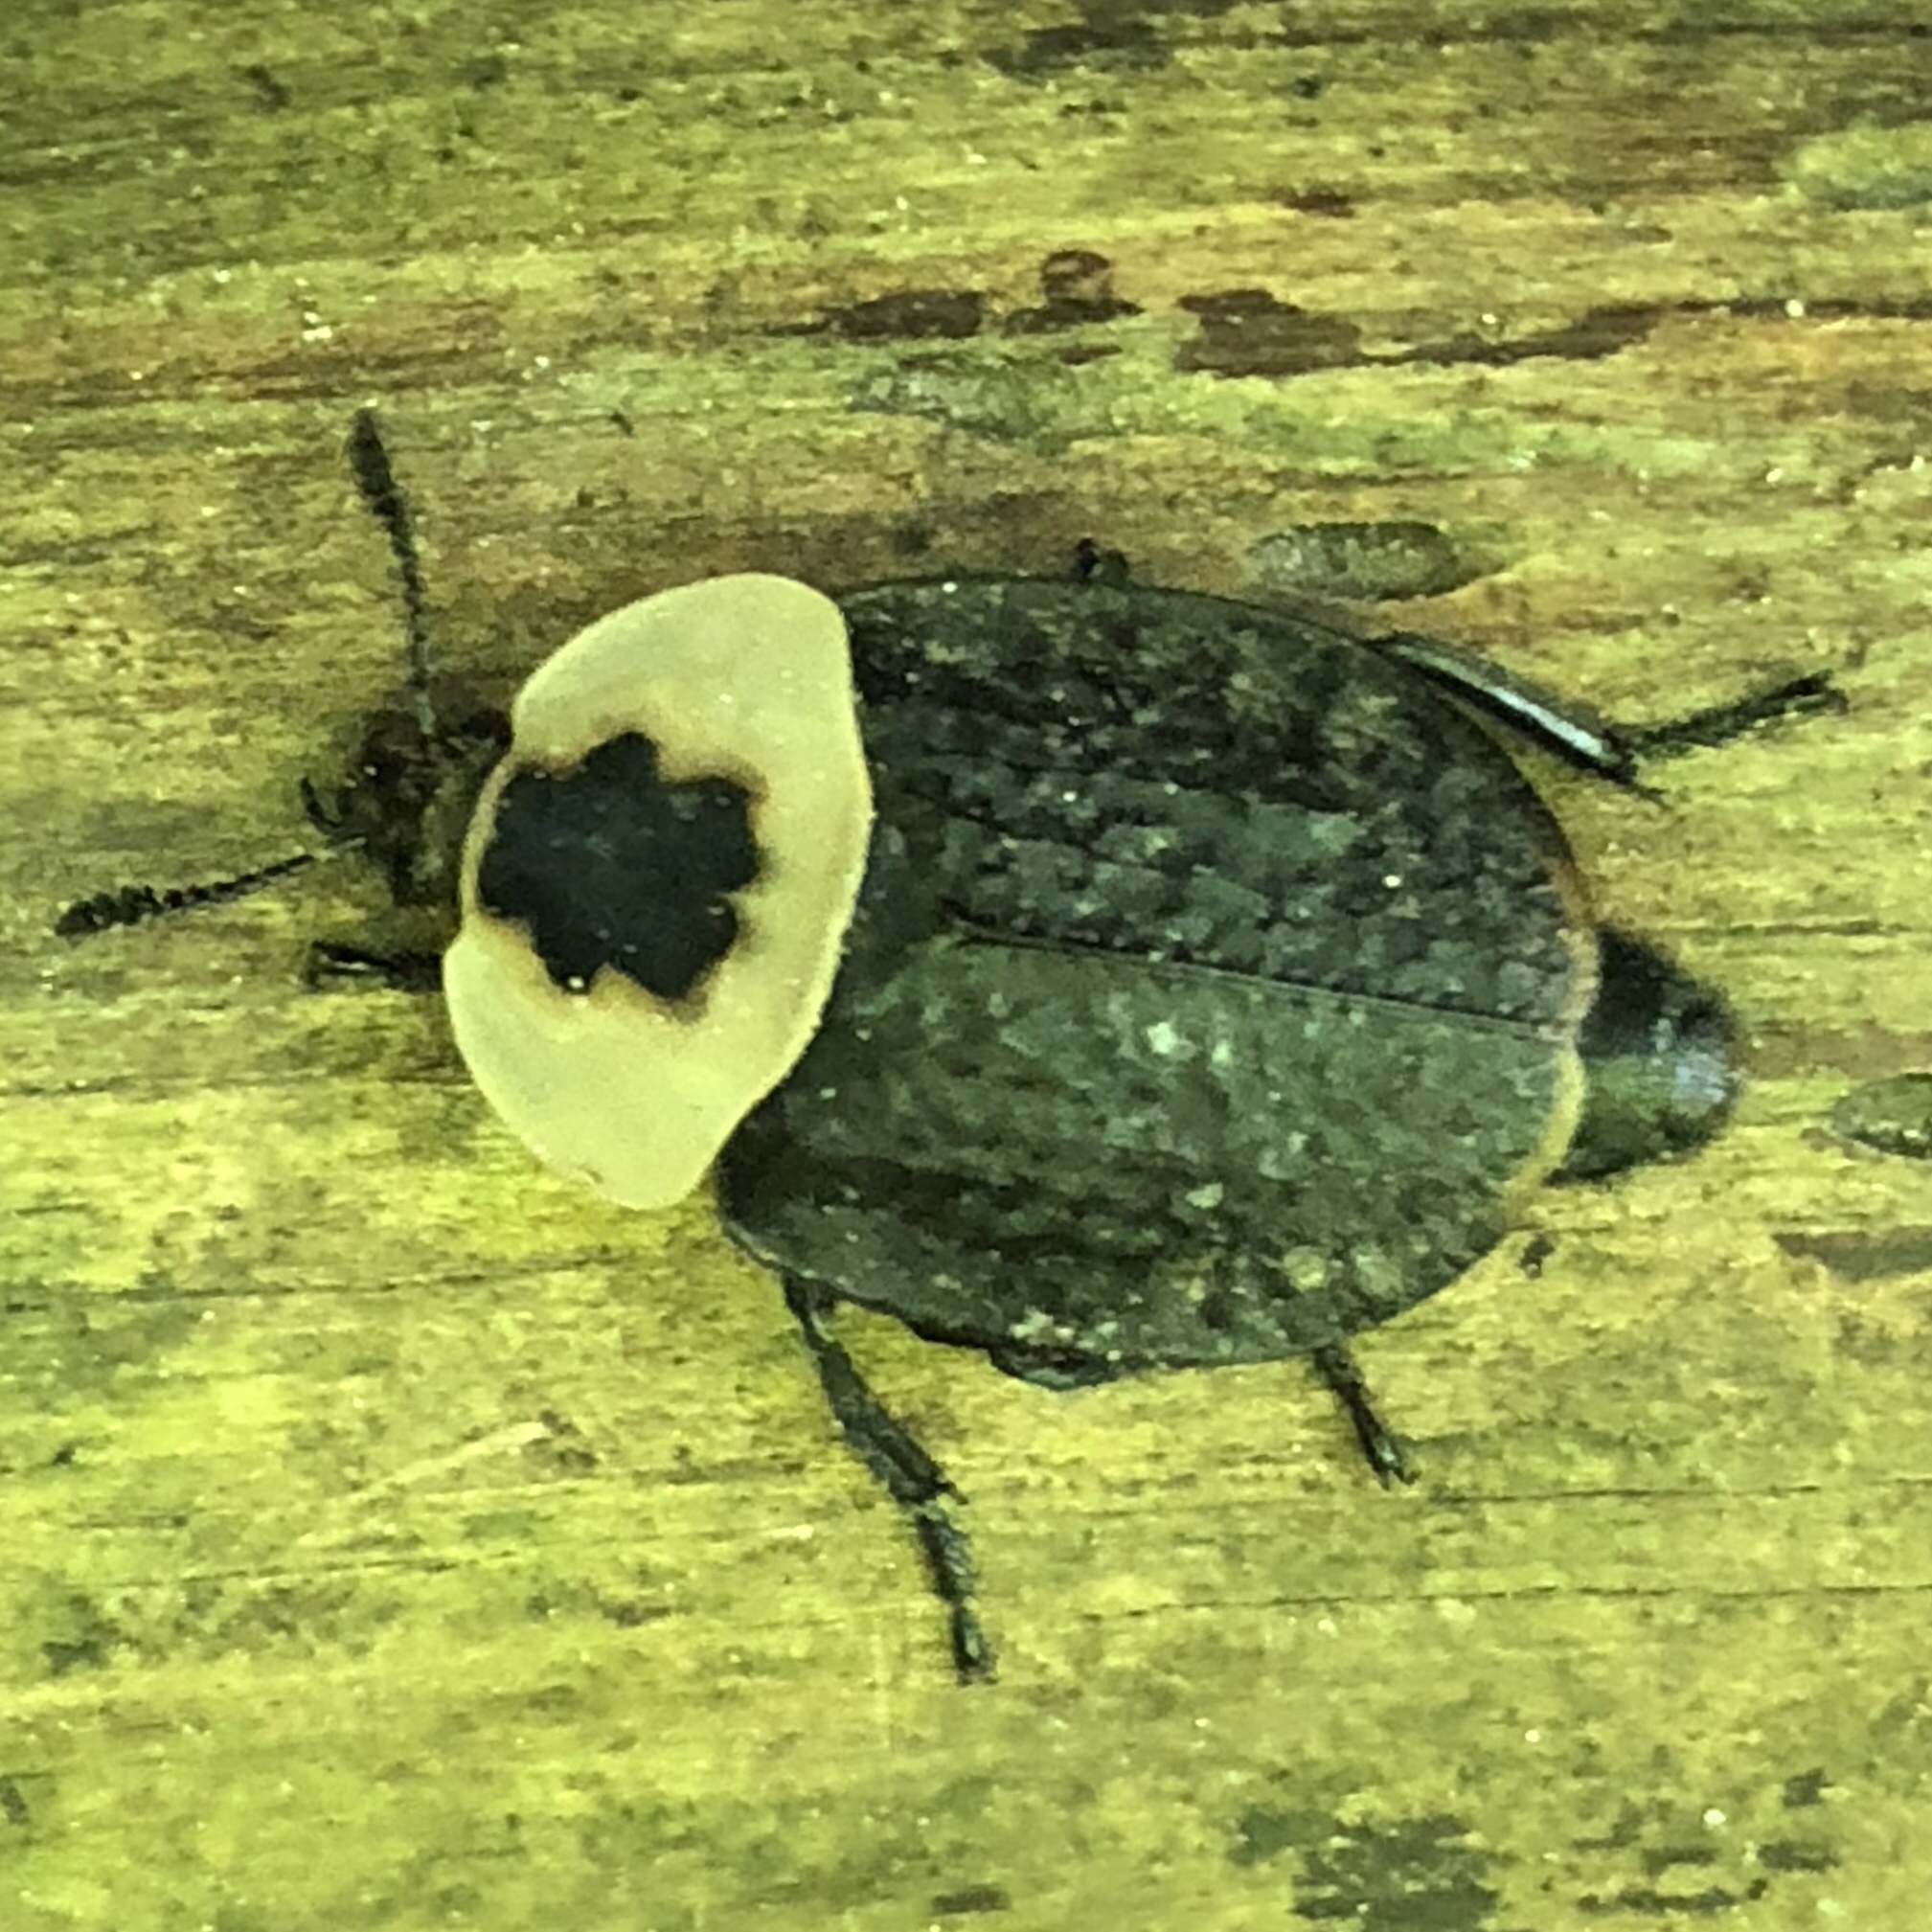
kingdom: Animalia
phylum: Arthropoda
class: Insecta
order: Coleoptera
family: Staphylinidae
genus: Necrophila
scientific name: Necrophila americana
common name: American carrion beetle
